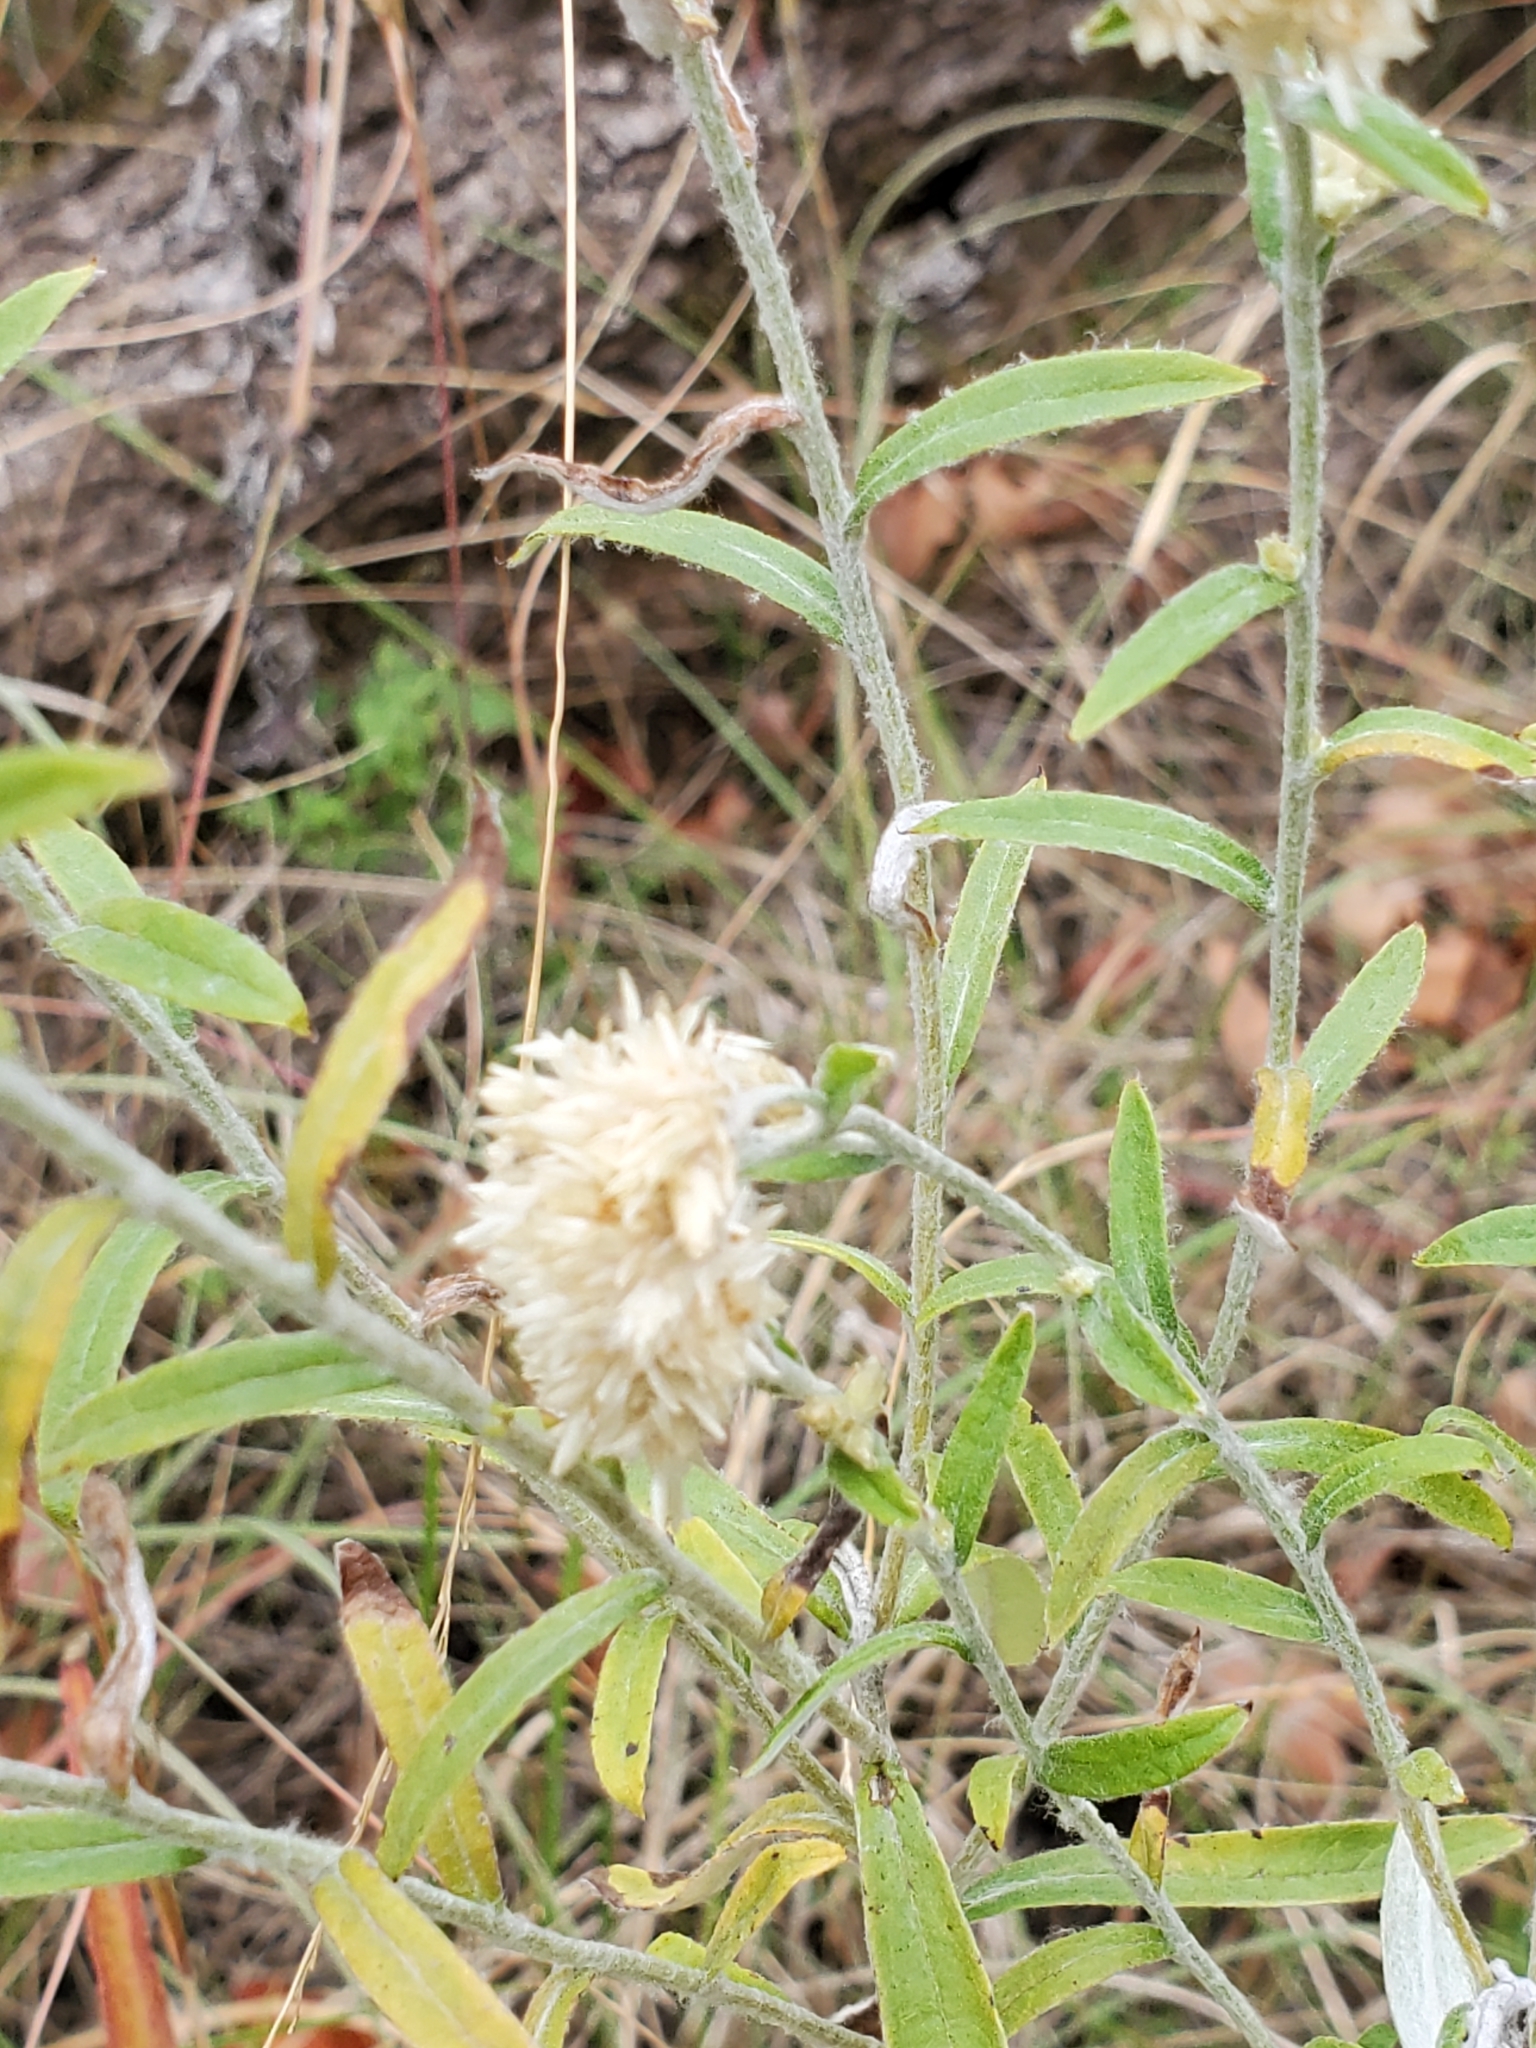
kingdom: Plantae
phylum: Tracheophyta
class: Magnoliopsida
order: Asterales
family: Asteraceae
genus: Pseudognaphalium
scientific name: Pseudognaphalium obtusifolium
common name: Eastern rabbit-tobacco
